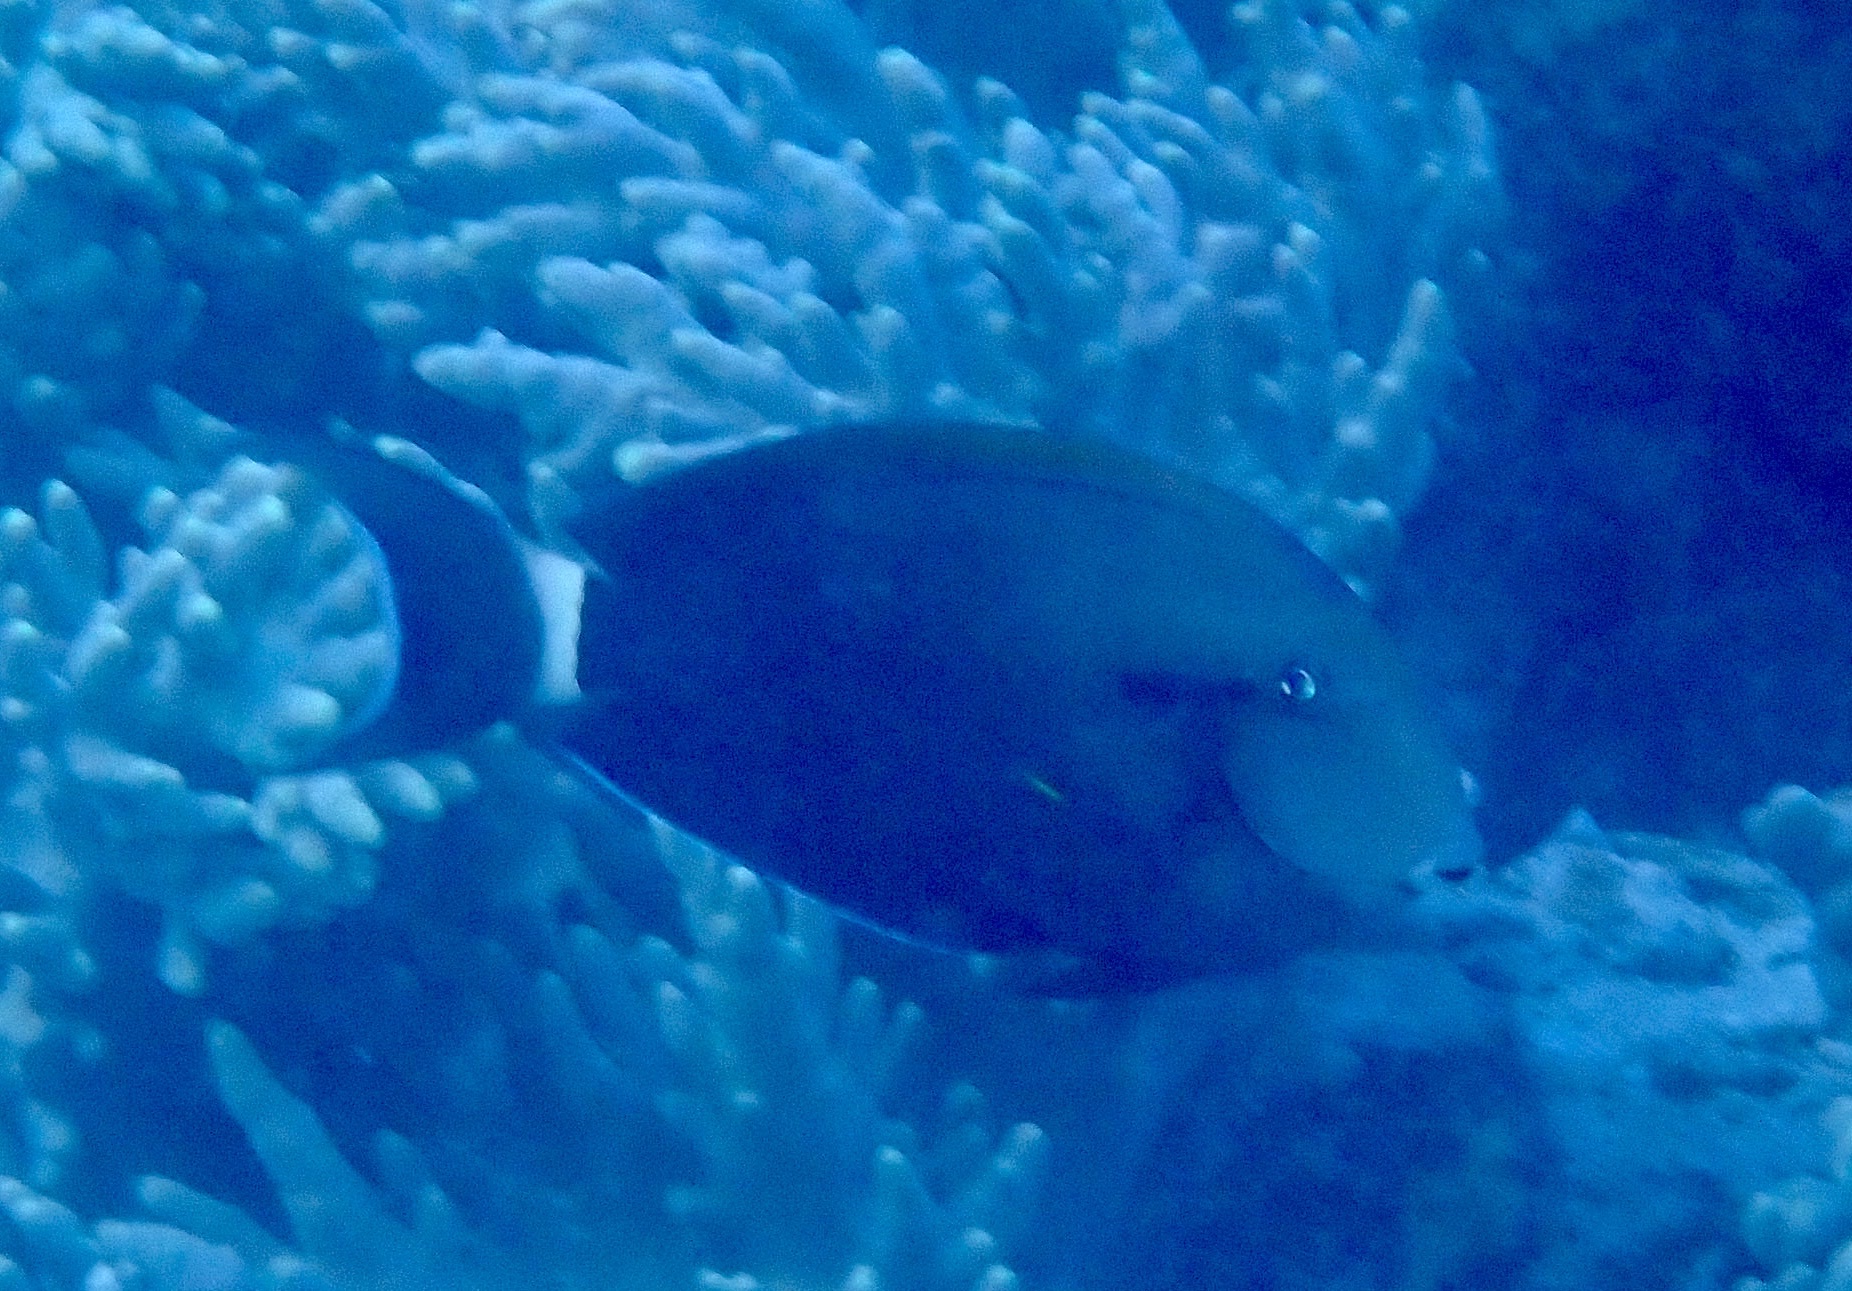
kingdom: Animalia
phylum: Chordata
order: Perciformes
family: Acanthuridae
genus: Acanthurus
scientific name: Acanthurus nigricauda
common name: Black-barred surgeonfish
